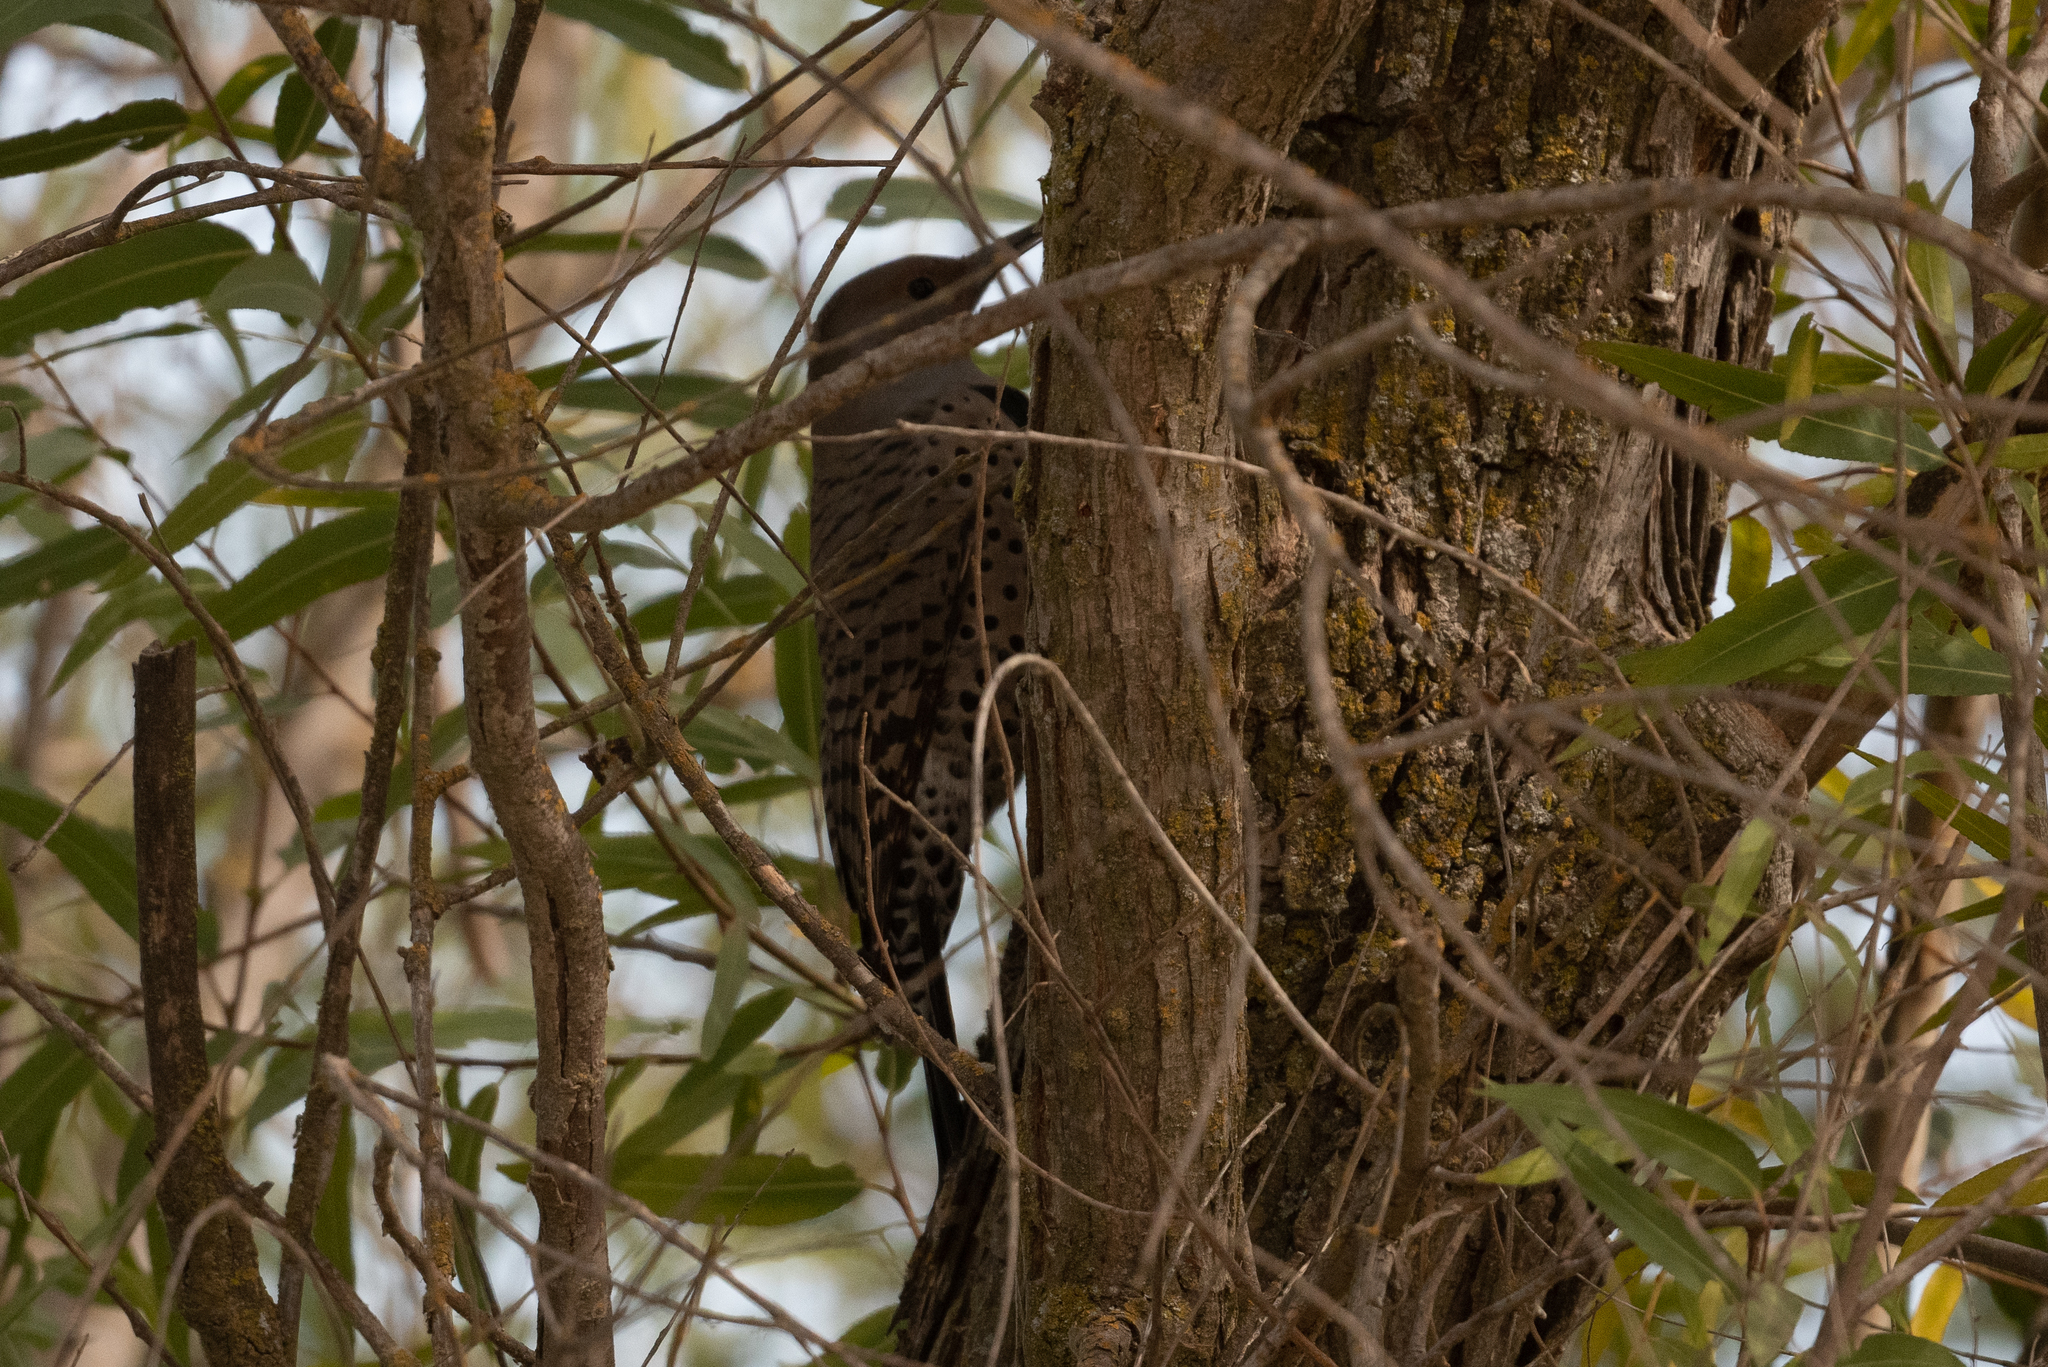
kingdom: Animalia
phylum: Chordata
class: Aves
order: Piciformes
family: Picidae
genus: Colaptes
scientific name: Colaptes auratus
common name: Northern flicker
